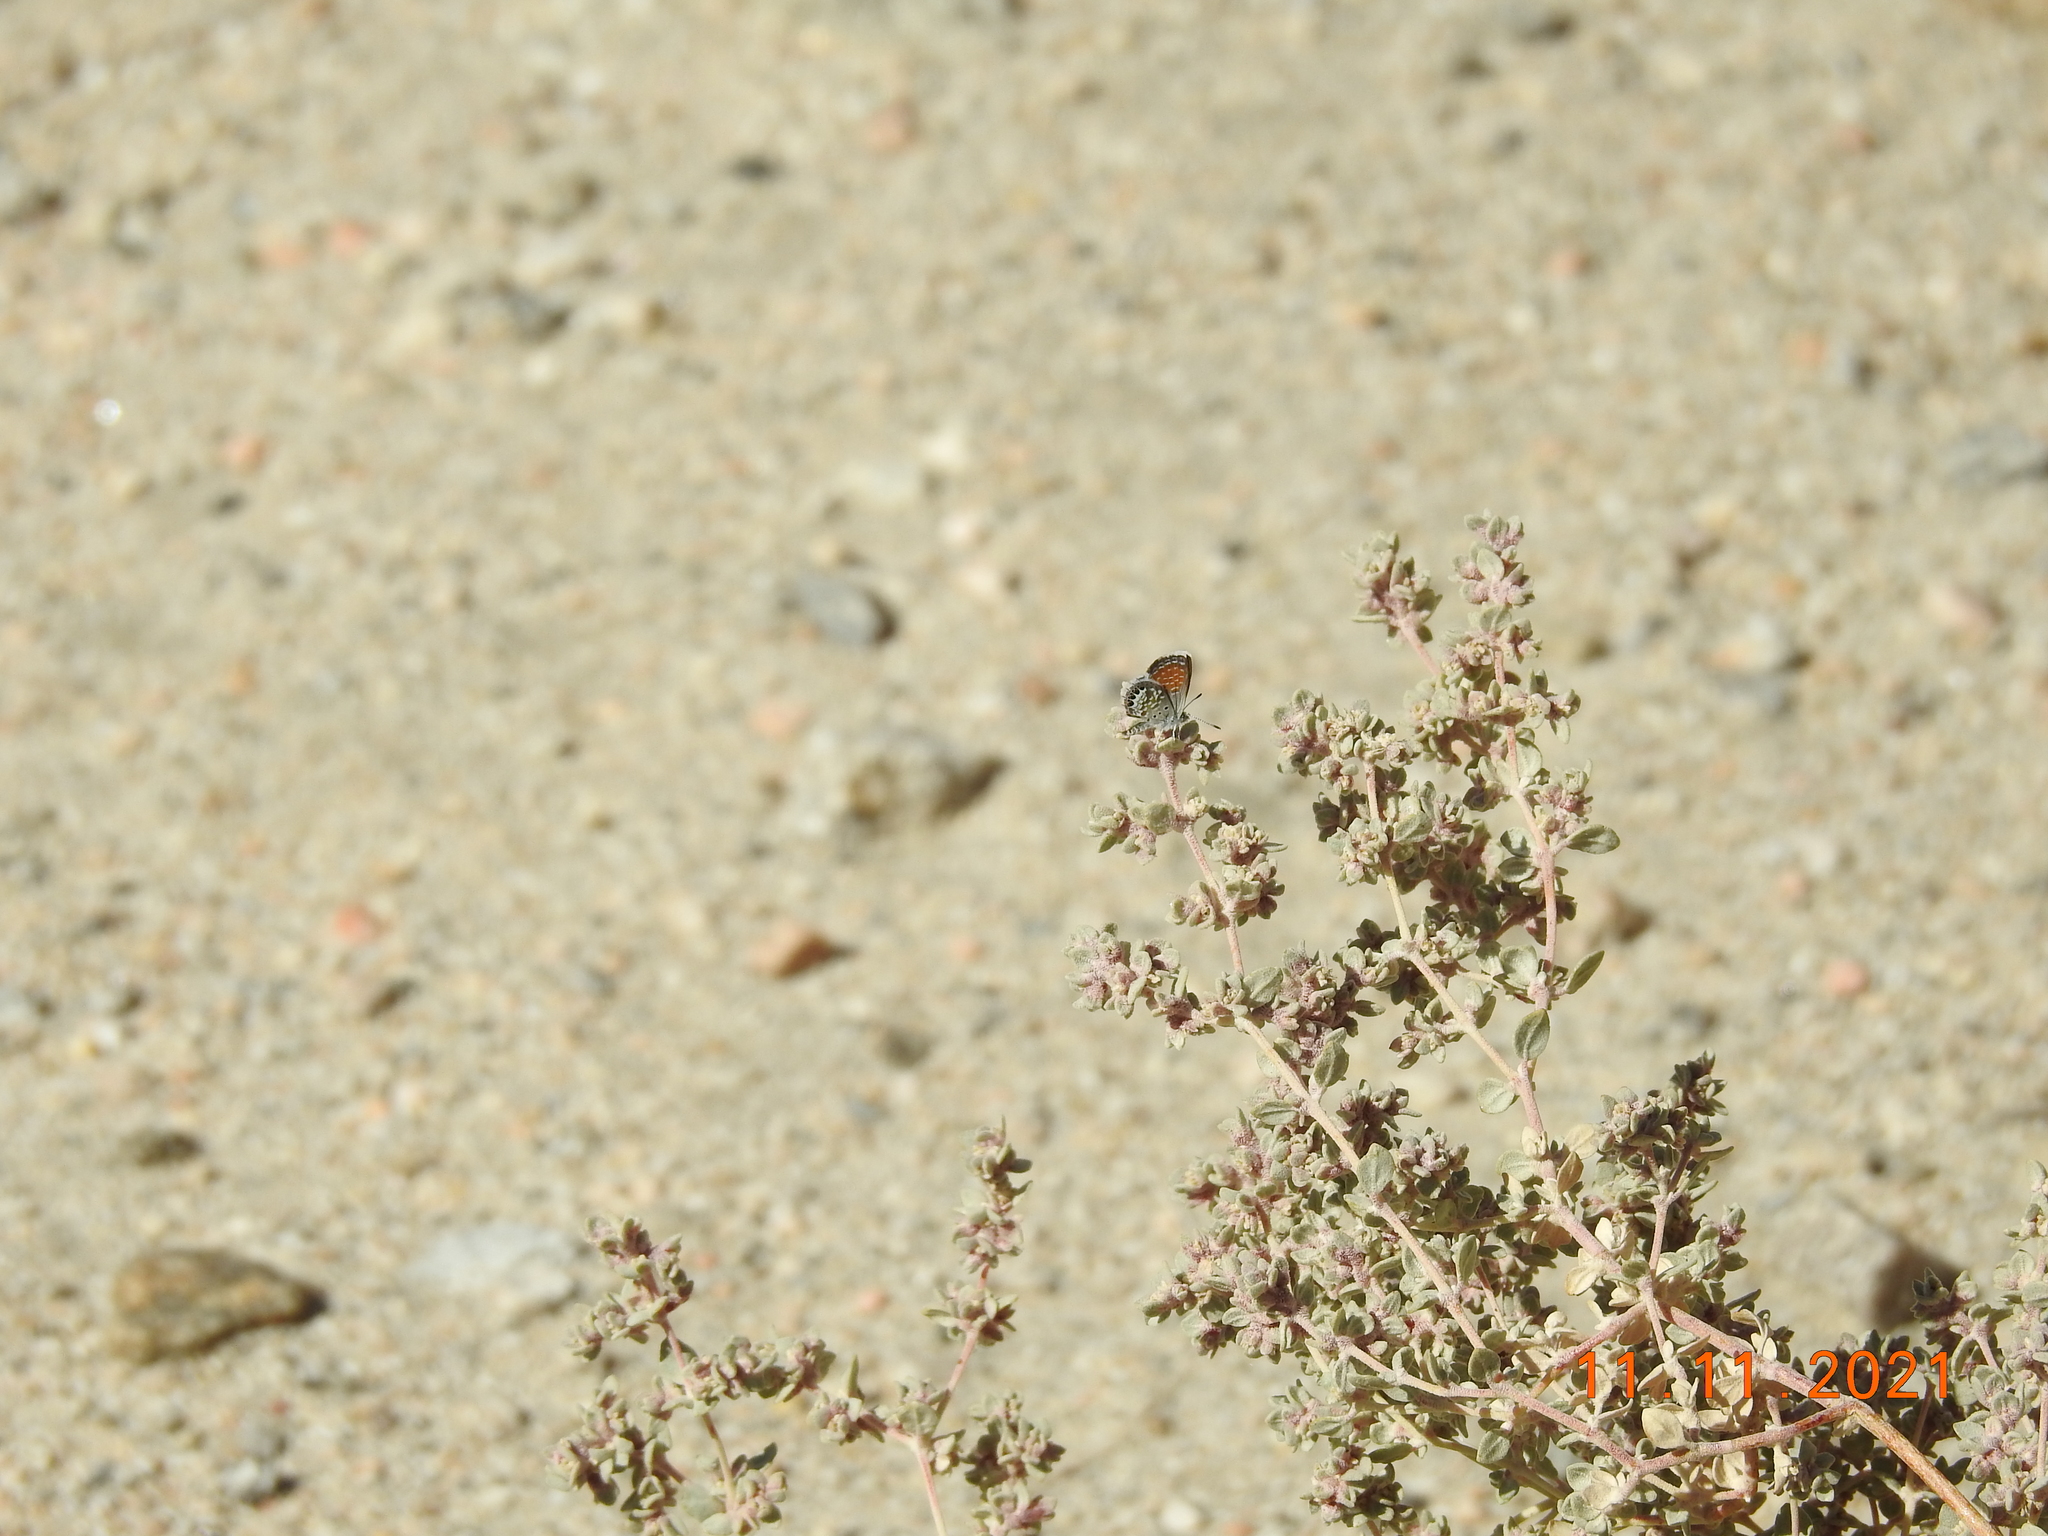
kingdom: Animalia
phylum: Arthropoda
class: Insecta
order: Lepidoptera
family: Lycaenidae
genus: Brephidium
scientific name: Brephidium exilis
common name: Pygmy blue
